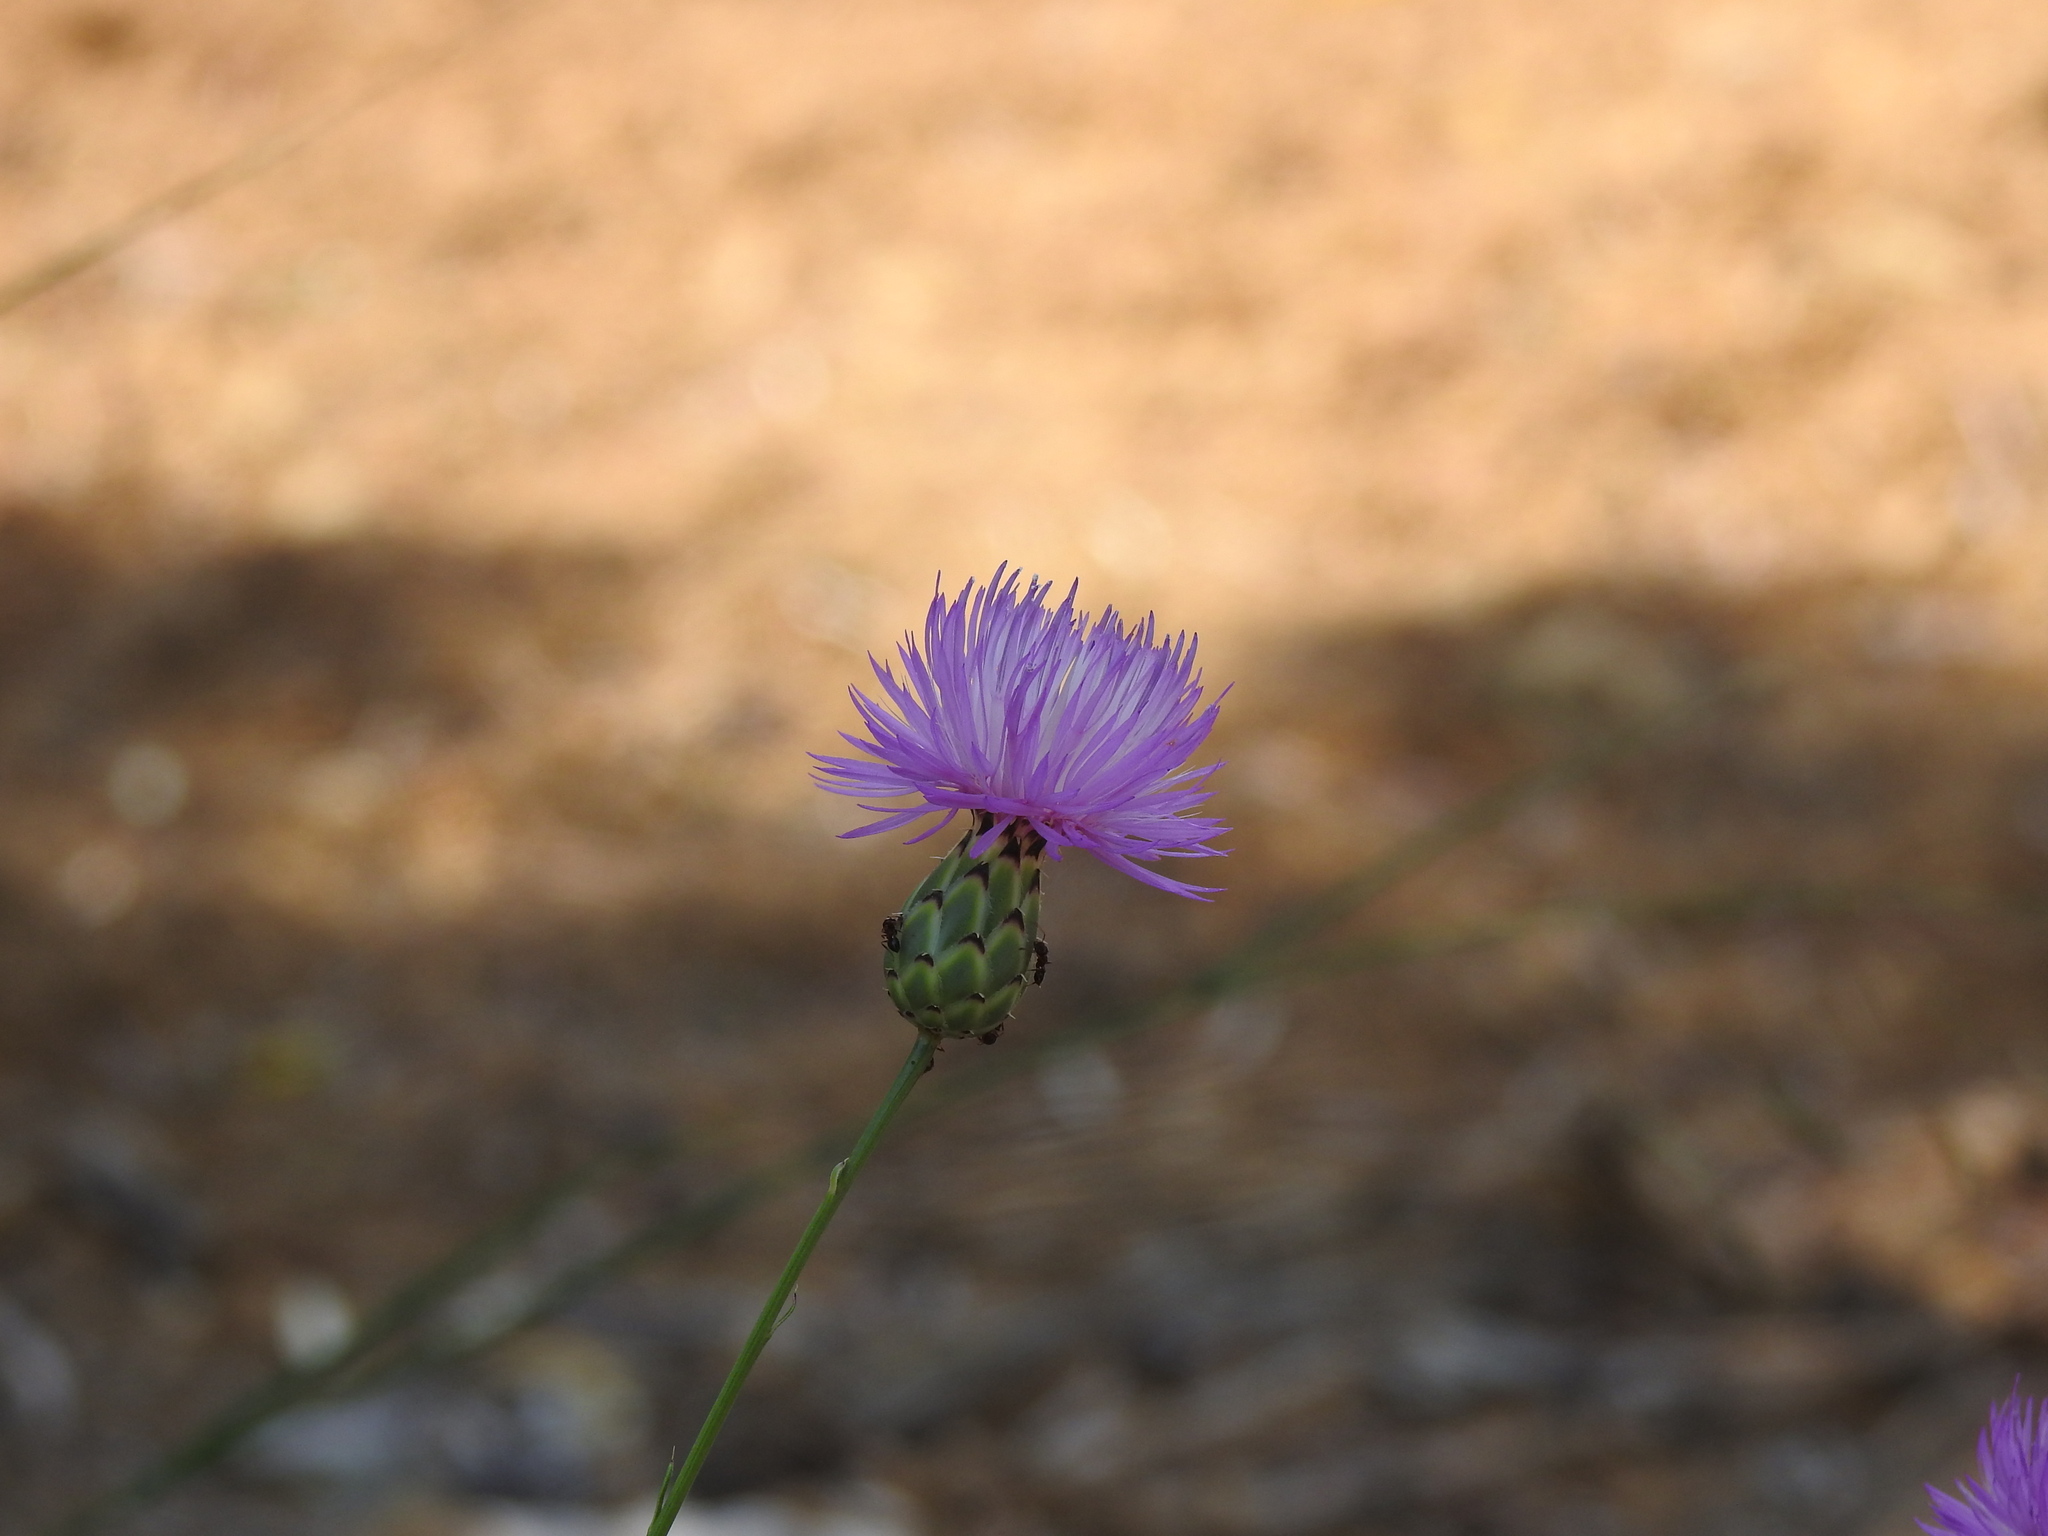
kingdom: Plantae
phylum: Tracheophyta
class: Magnoliopsida
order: Asterales
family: Asteraceae
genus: Mantisalca
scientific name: Mantisalca salmantica
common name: Dagger flower
